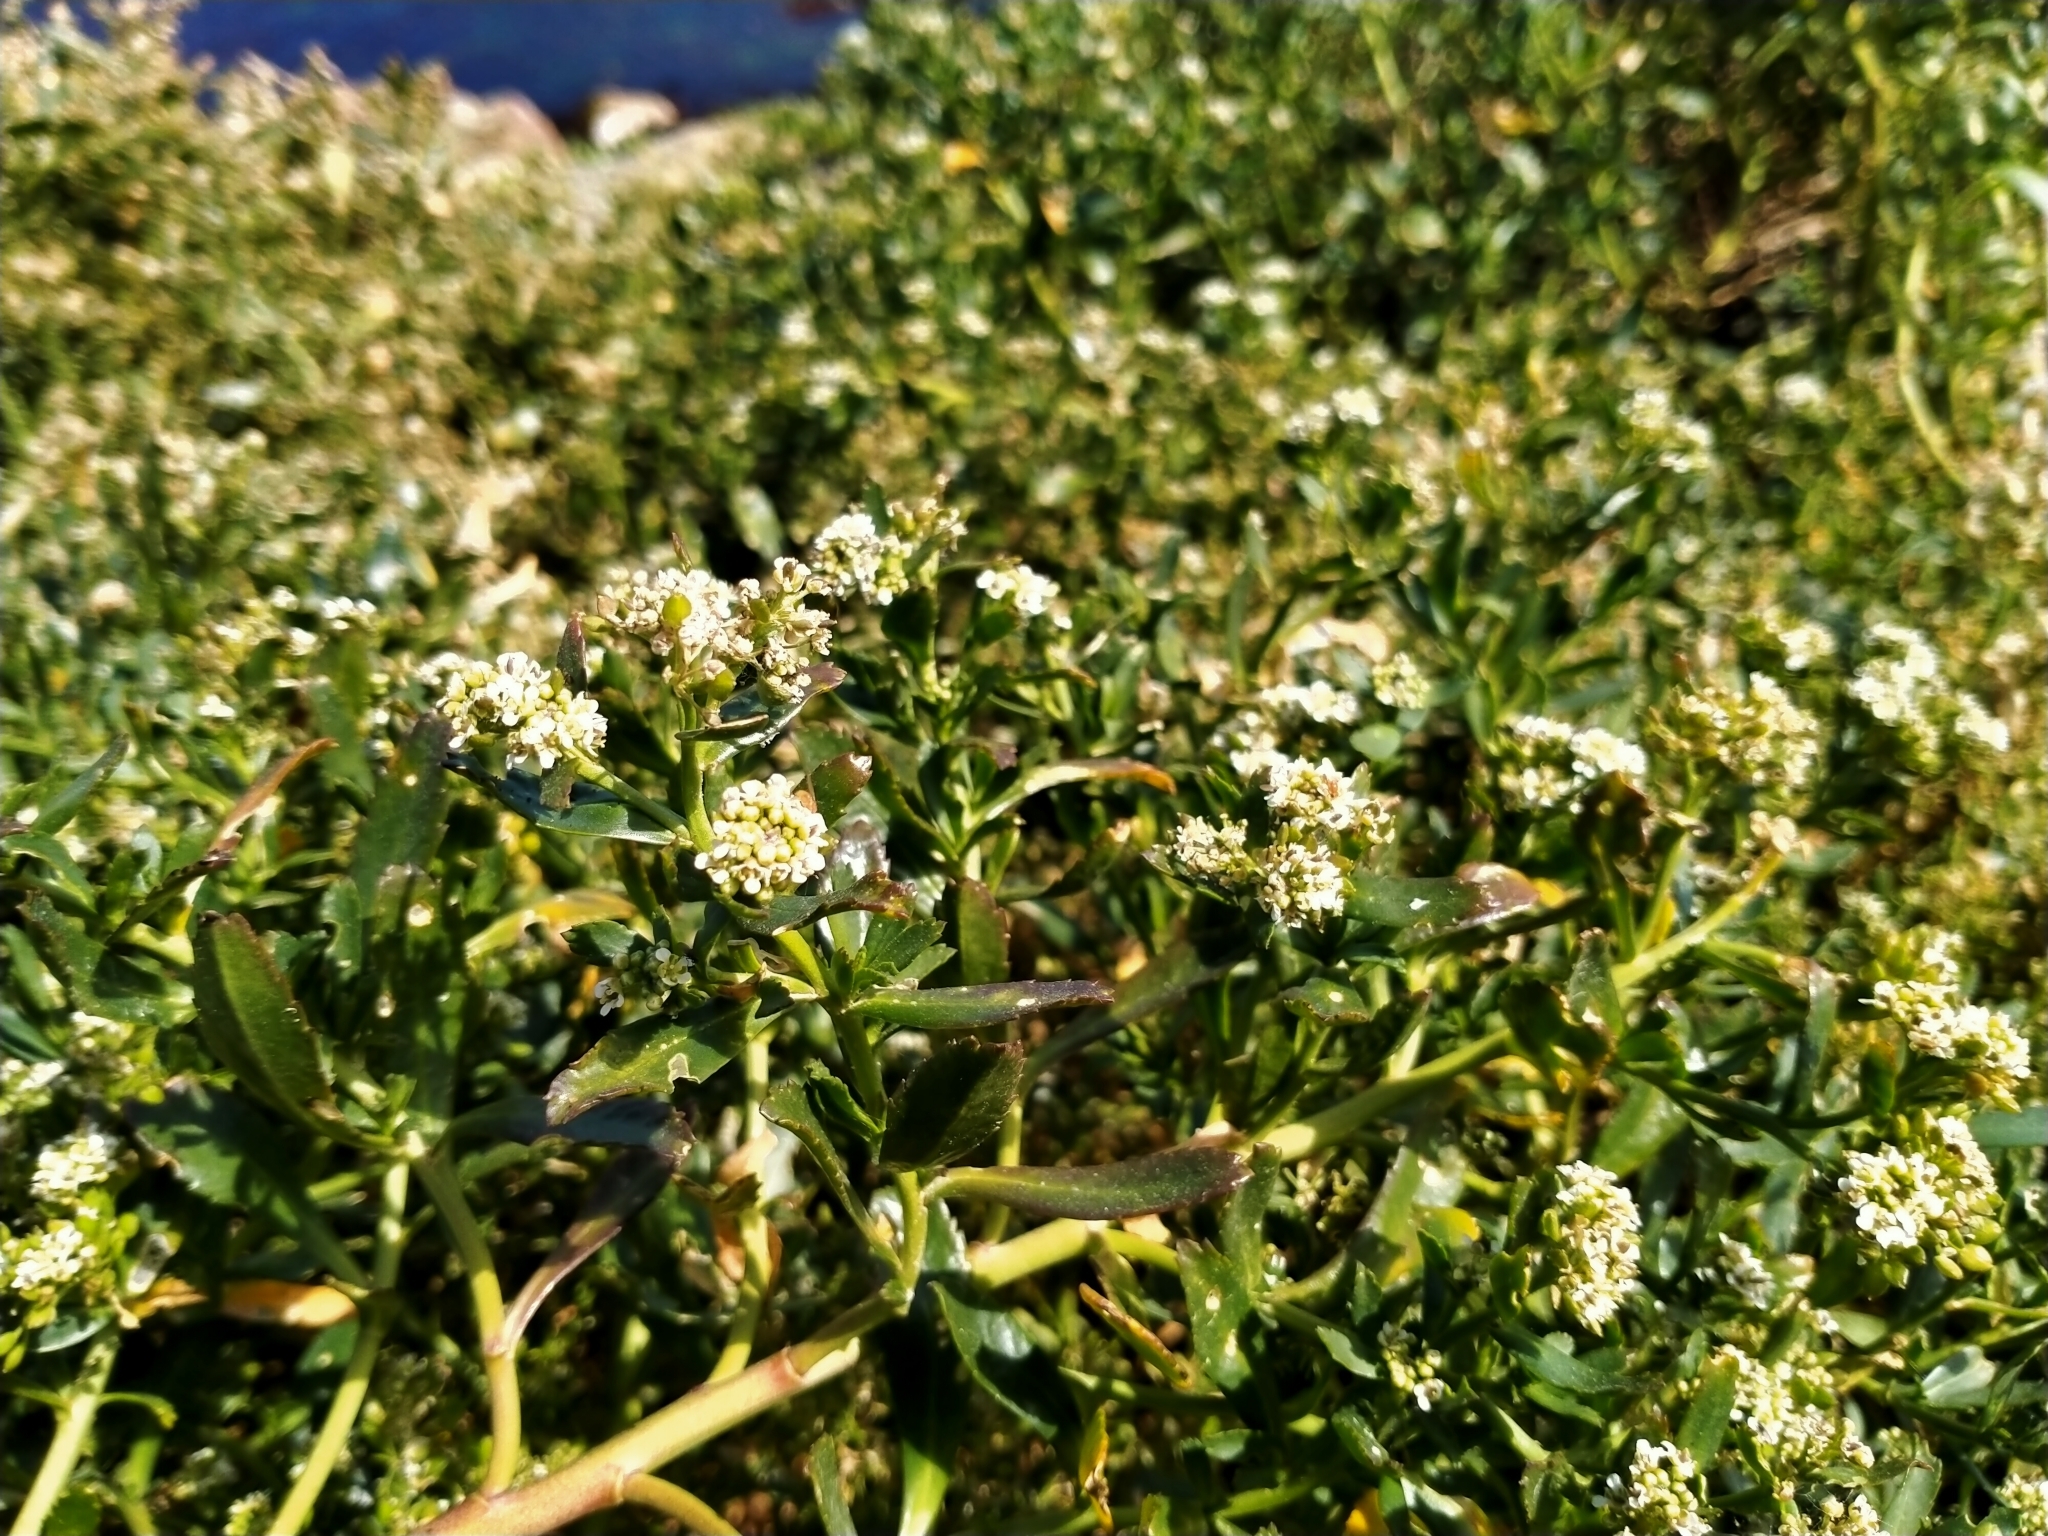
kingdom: Plantae
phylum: Tracheophyta
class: Magnoliopsida
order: Brassicales
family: Brassicaceae
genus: Lepidium
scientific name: Lepidium crassum
